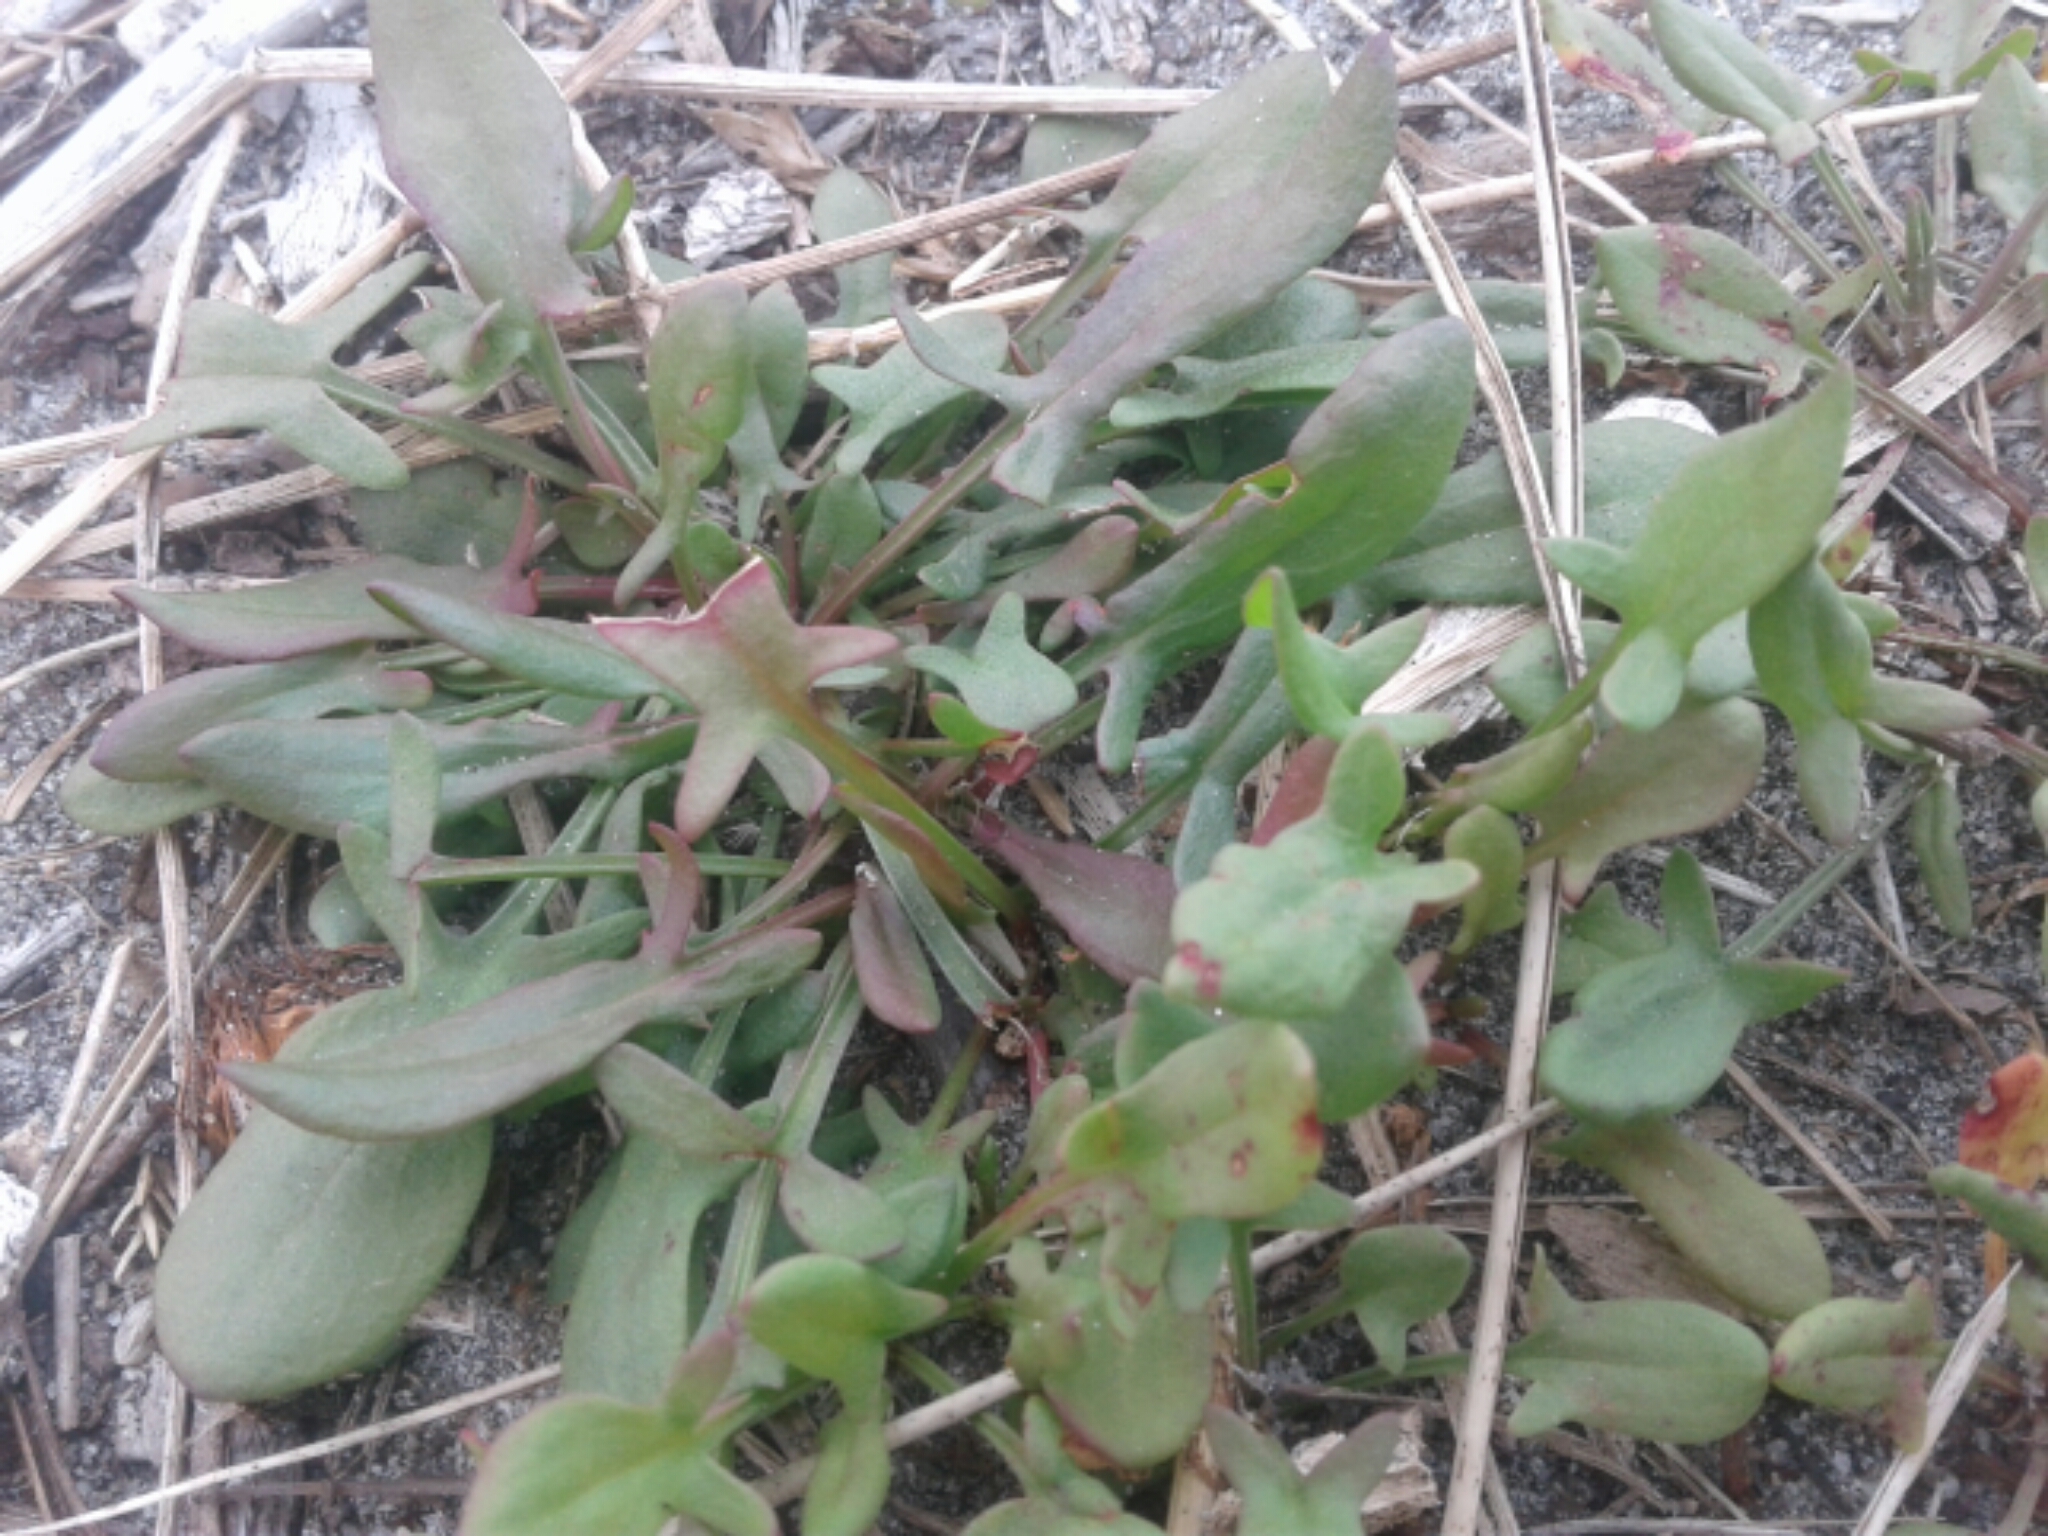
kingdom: Plantae
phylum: Tracheophyta
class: Magnoliopsida
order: Caryophyllales
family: Polygonaceae
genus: Rumex
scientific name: Rumex acetosella
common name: Common sheep sorrel
